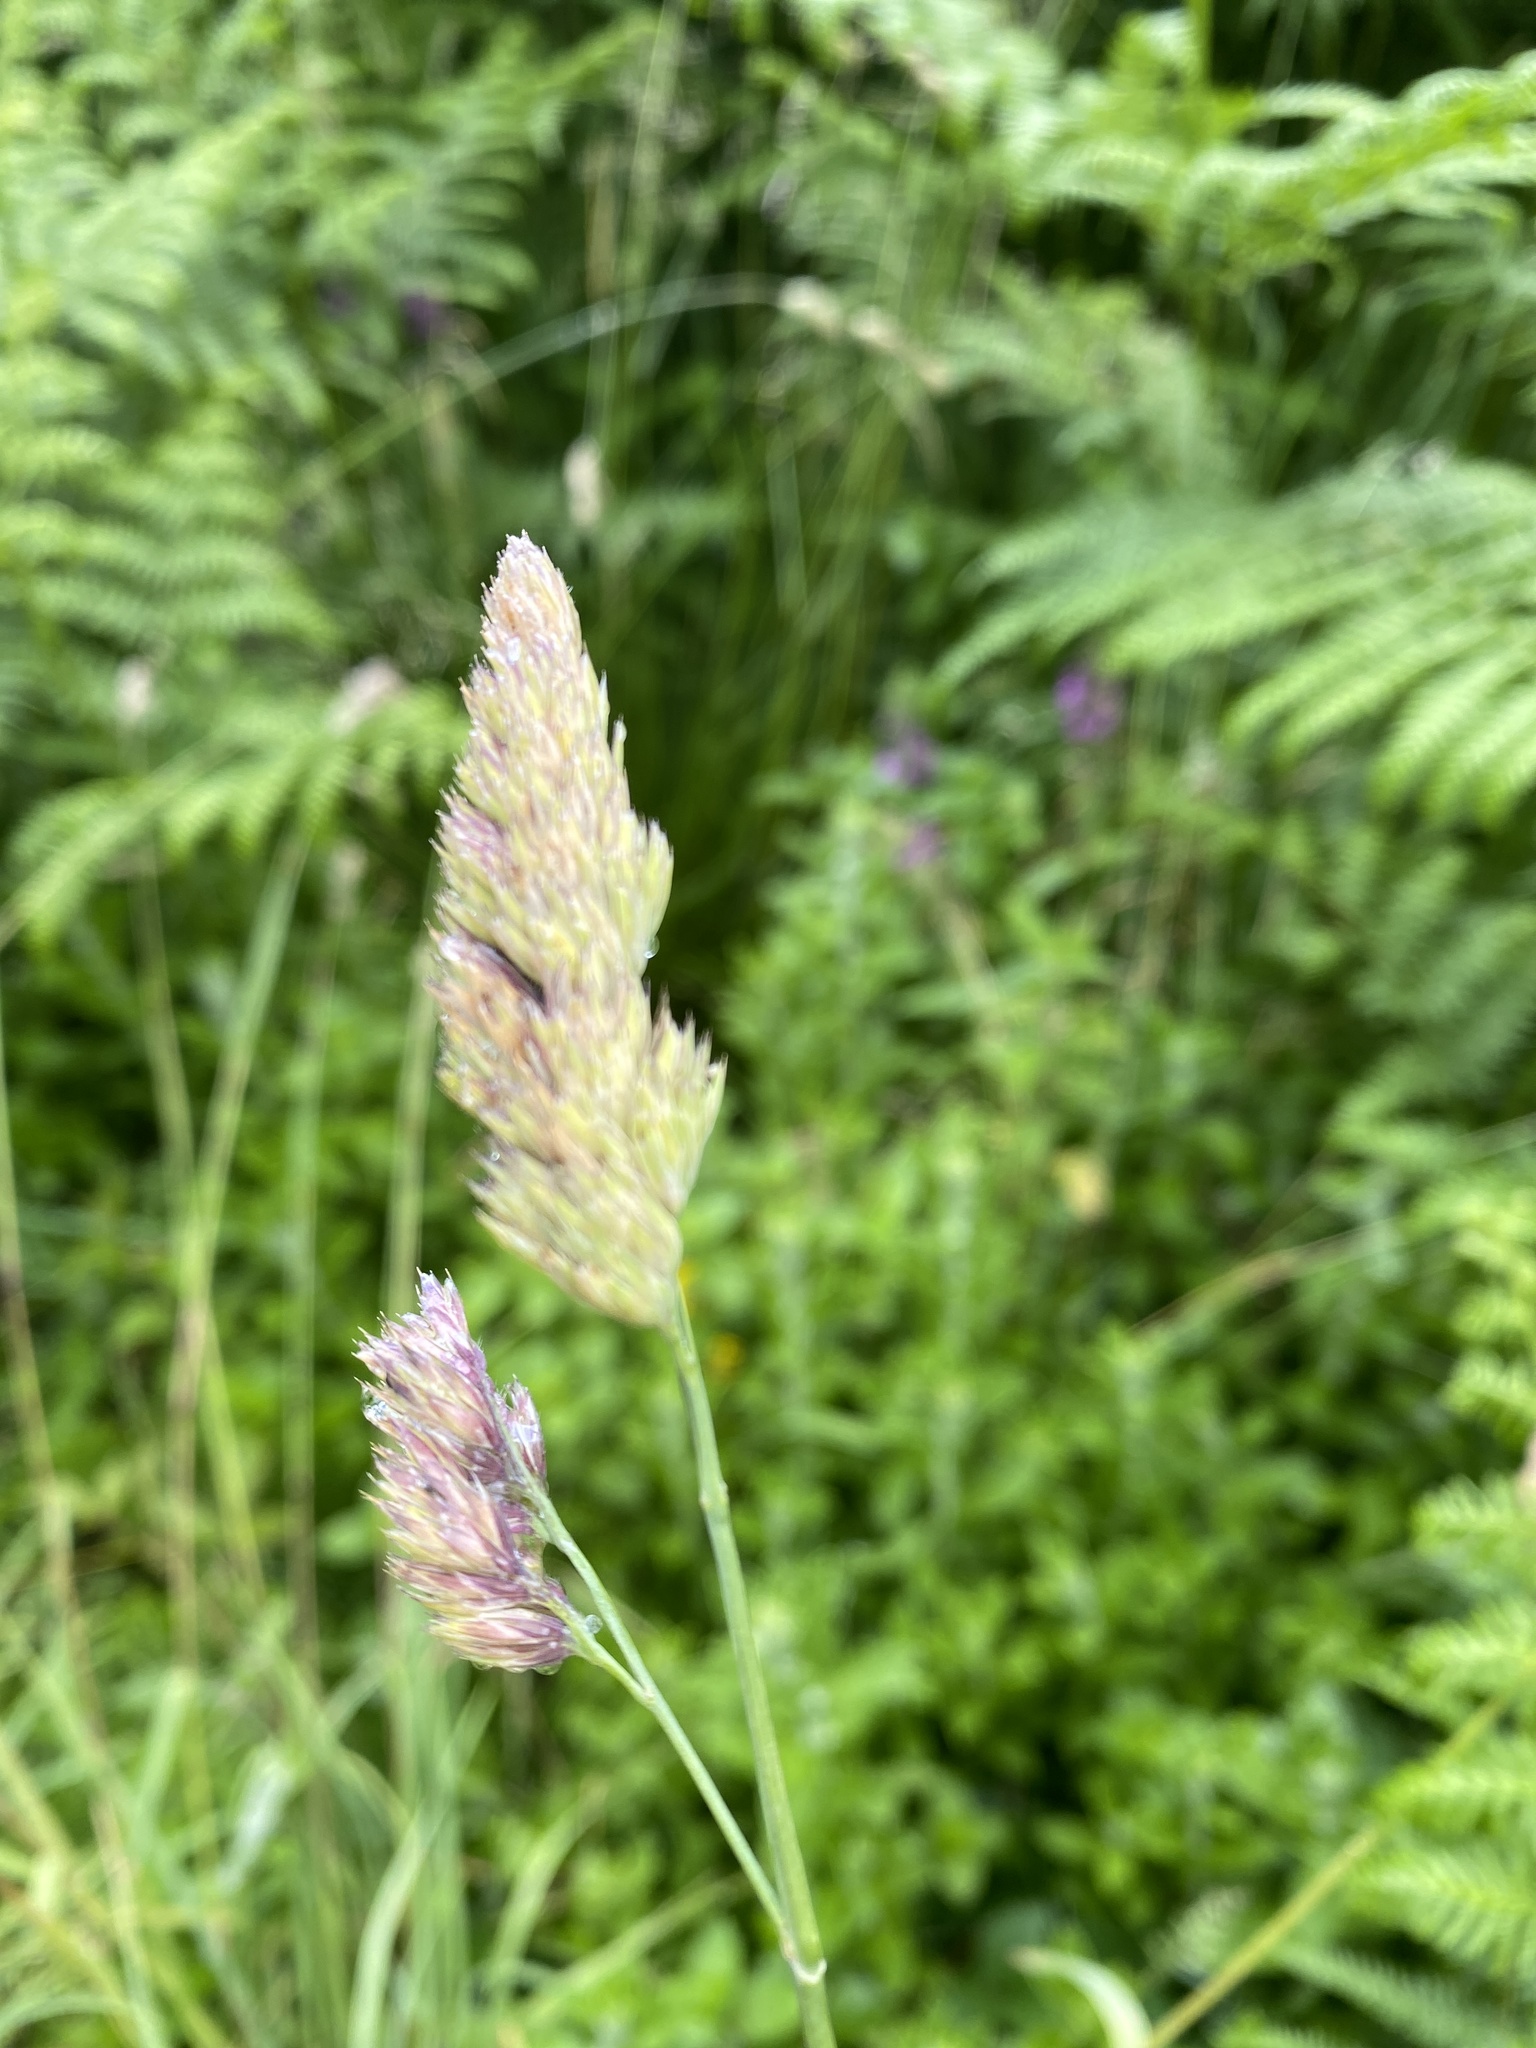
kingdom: Plantae
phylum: Tracheophyta
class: Liliopsida
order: Poales
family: Poaceae
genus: Dactylis
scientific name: Dactylis glomerata
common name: Orchardgrass
